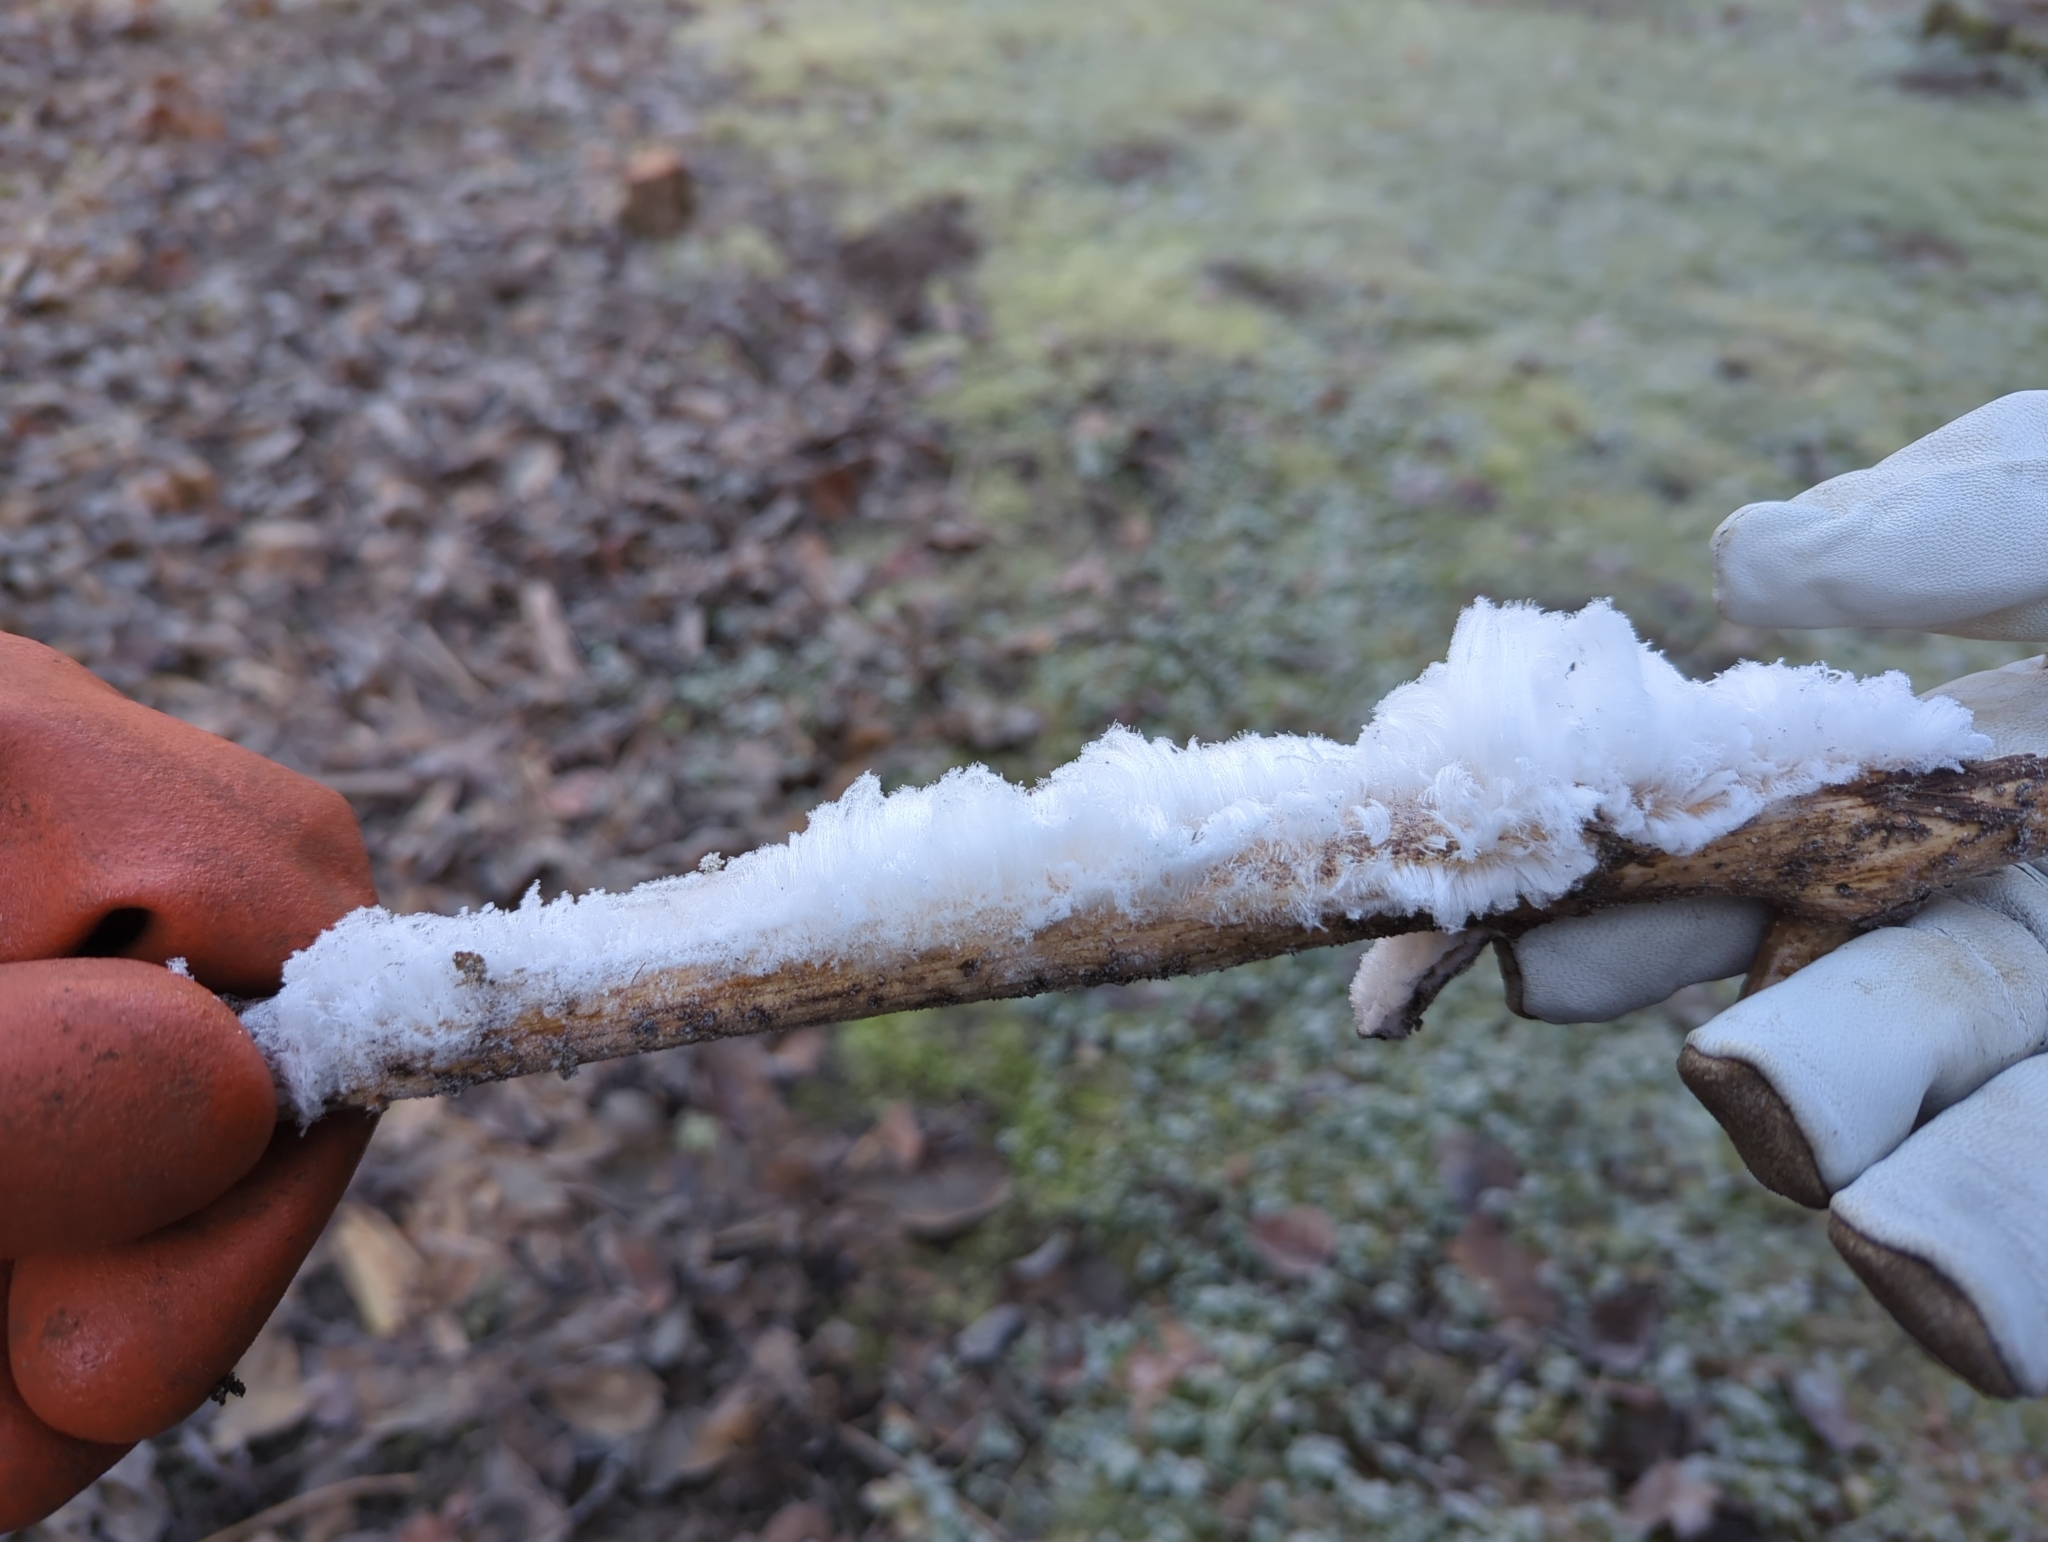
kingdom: Fungi
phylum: Basidiomycota
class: Agaricomycetes
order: Auriculariales
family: Auriculariaceae
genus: Exidiopsis
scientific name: Exidiopsis effusa
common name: Hair ice crust
